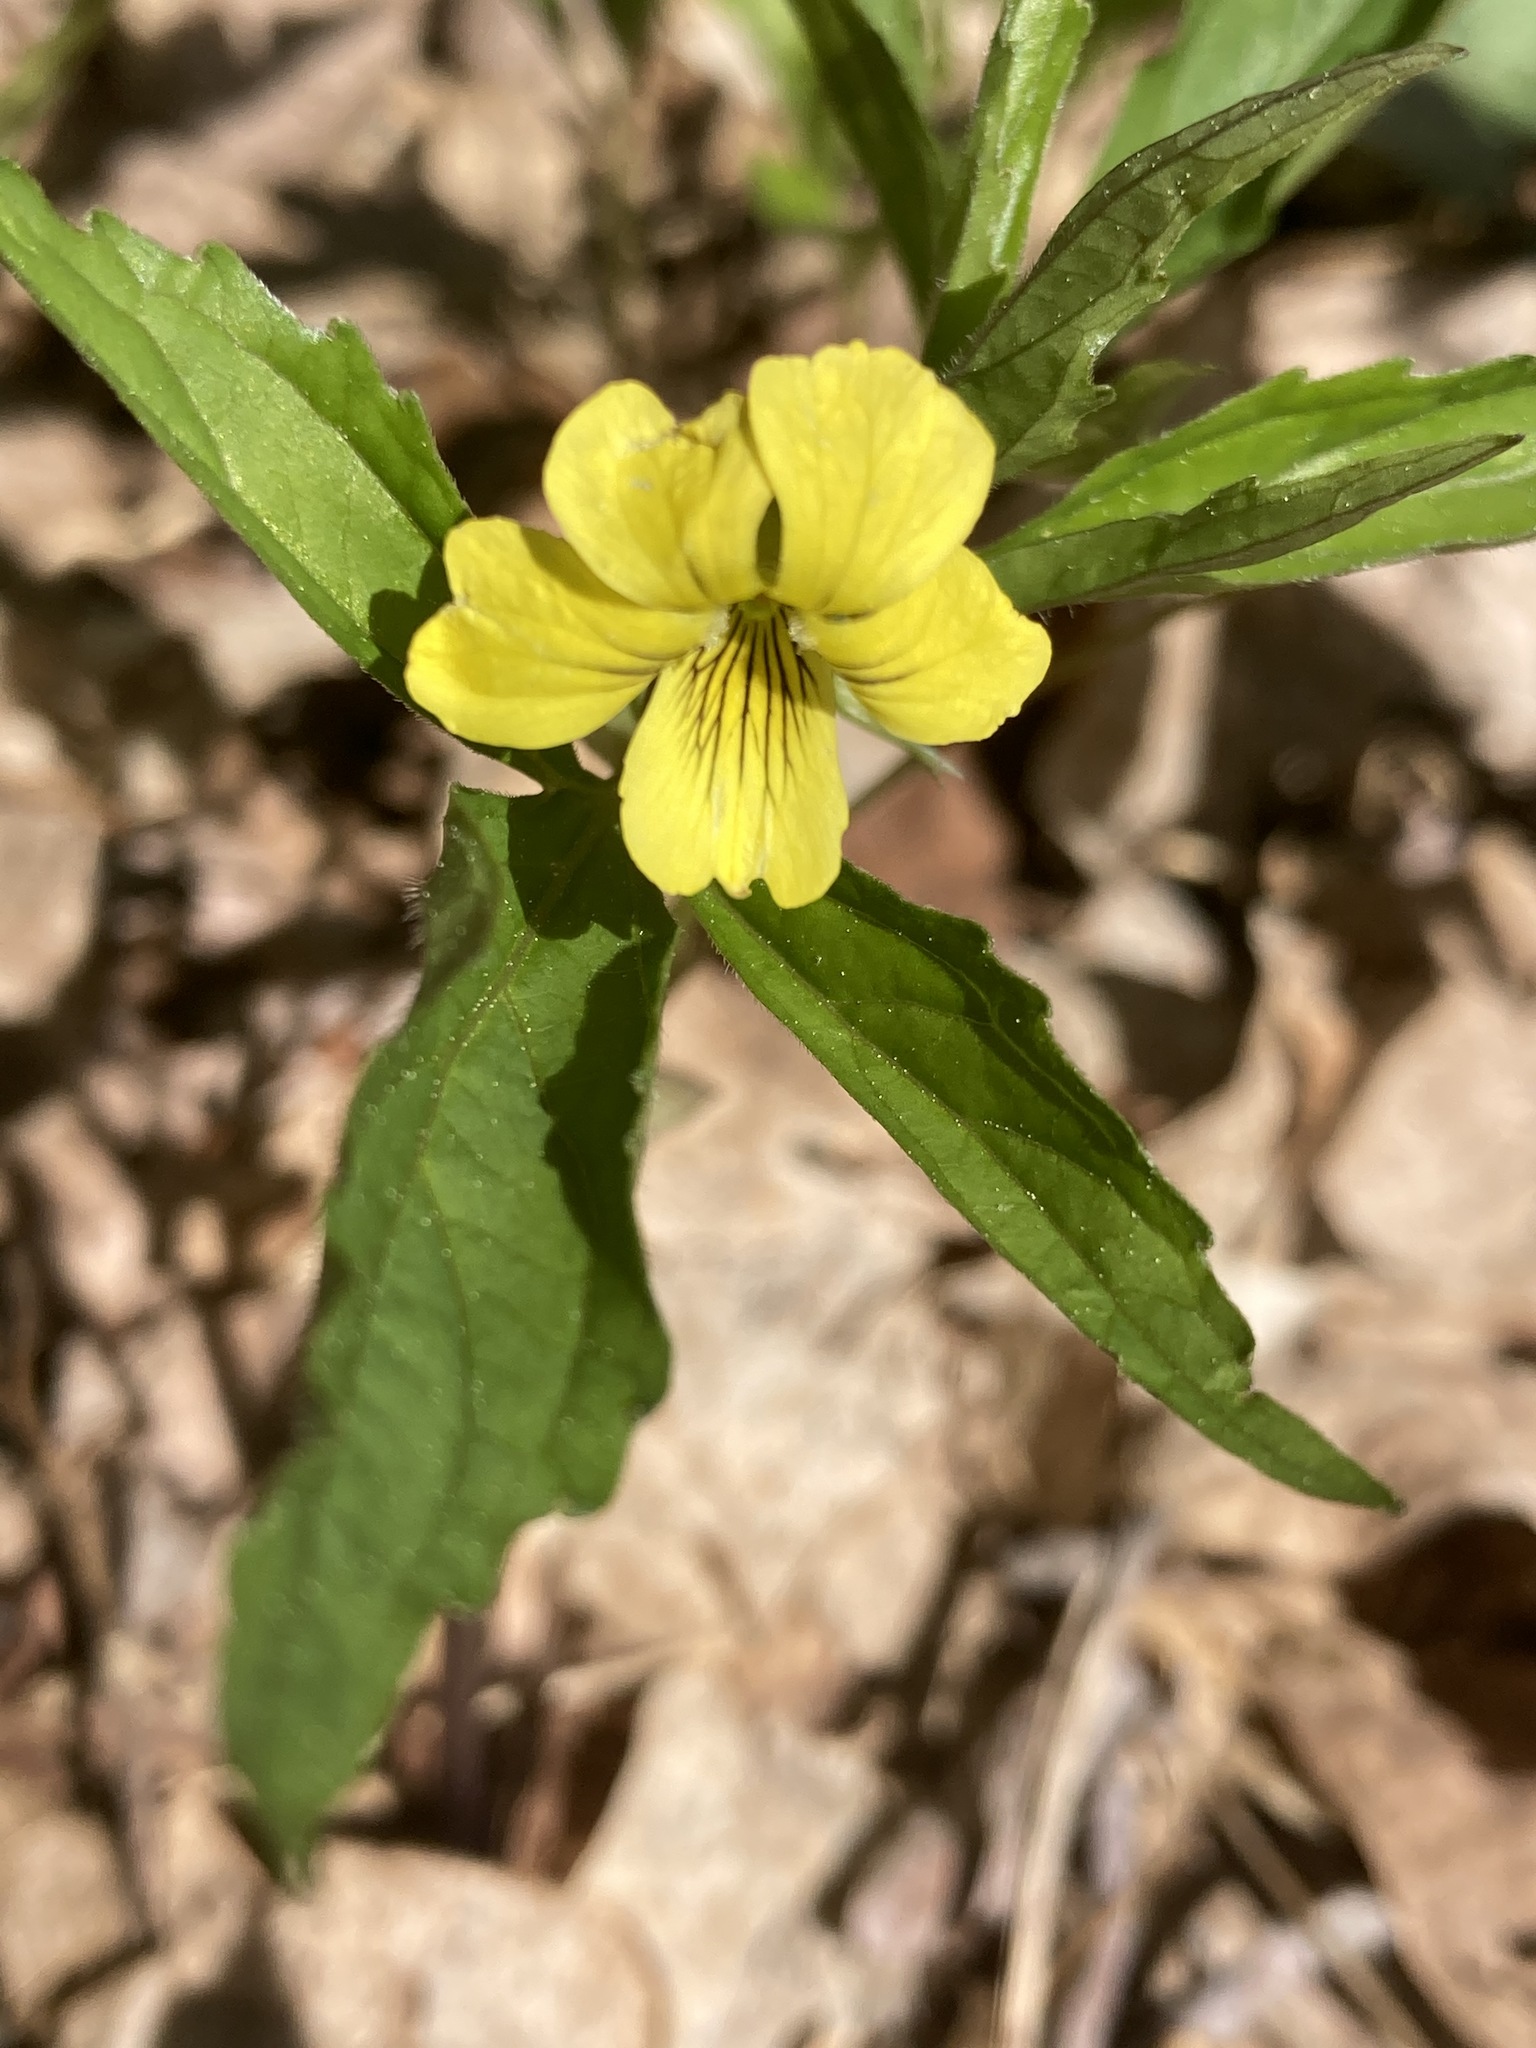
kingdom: Plantae
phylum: Tracheophyta
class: Magnoliopsida
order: Malpighiales
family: Violaceae
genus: Viola
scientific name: Viola tripartita
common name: Three-part violet
